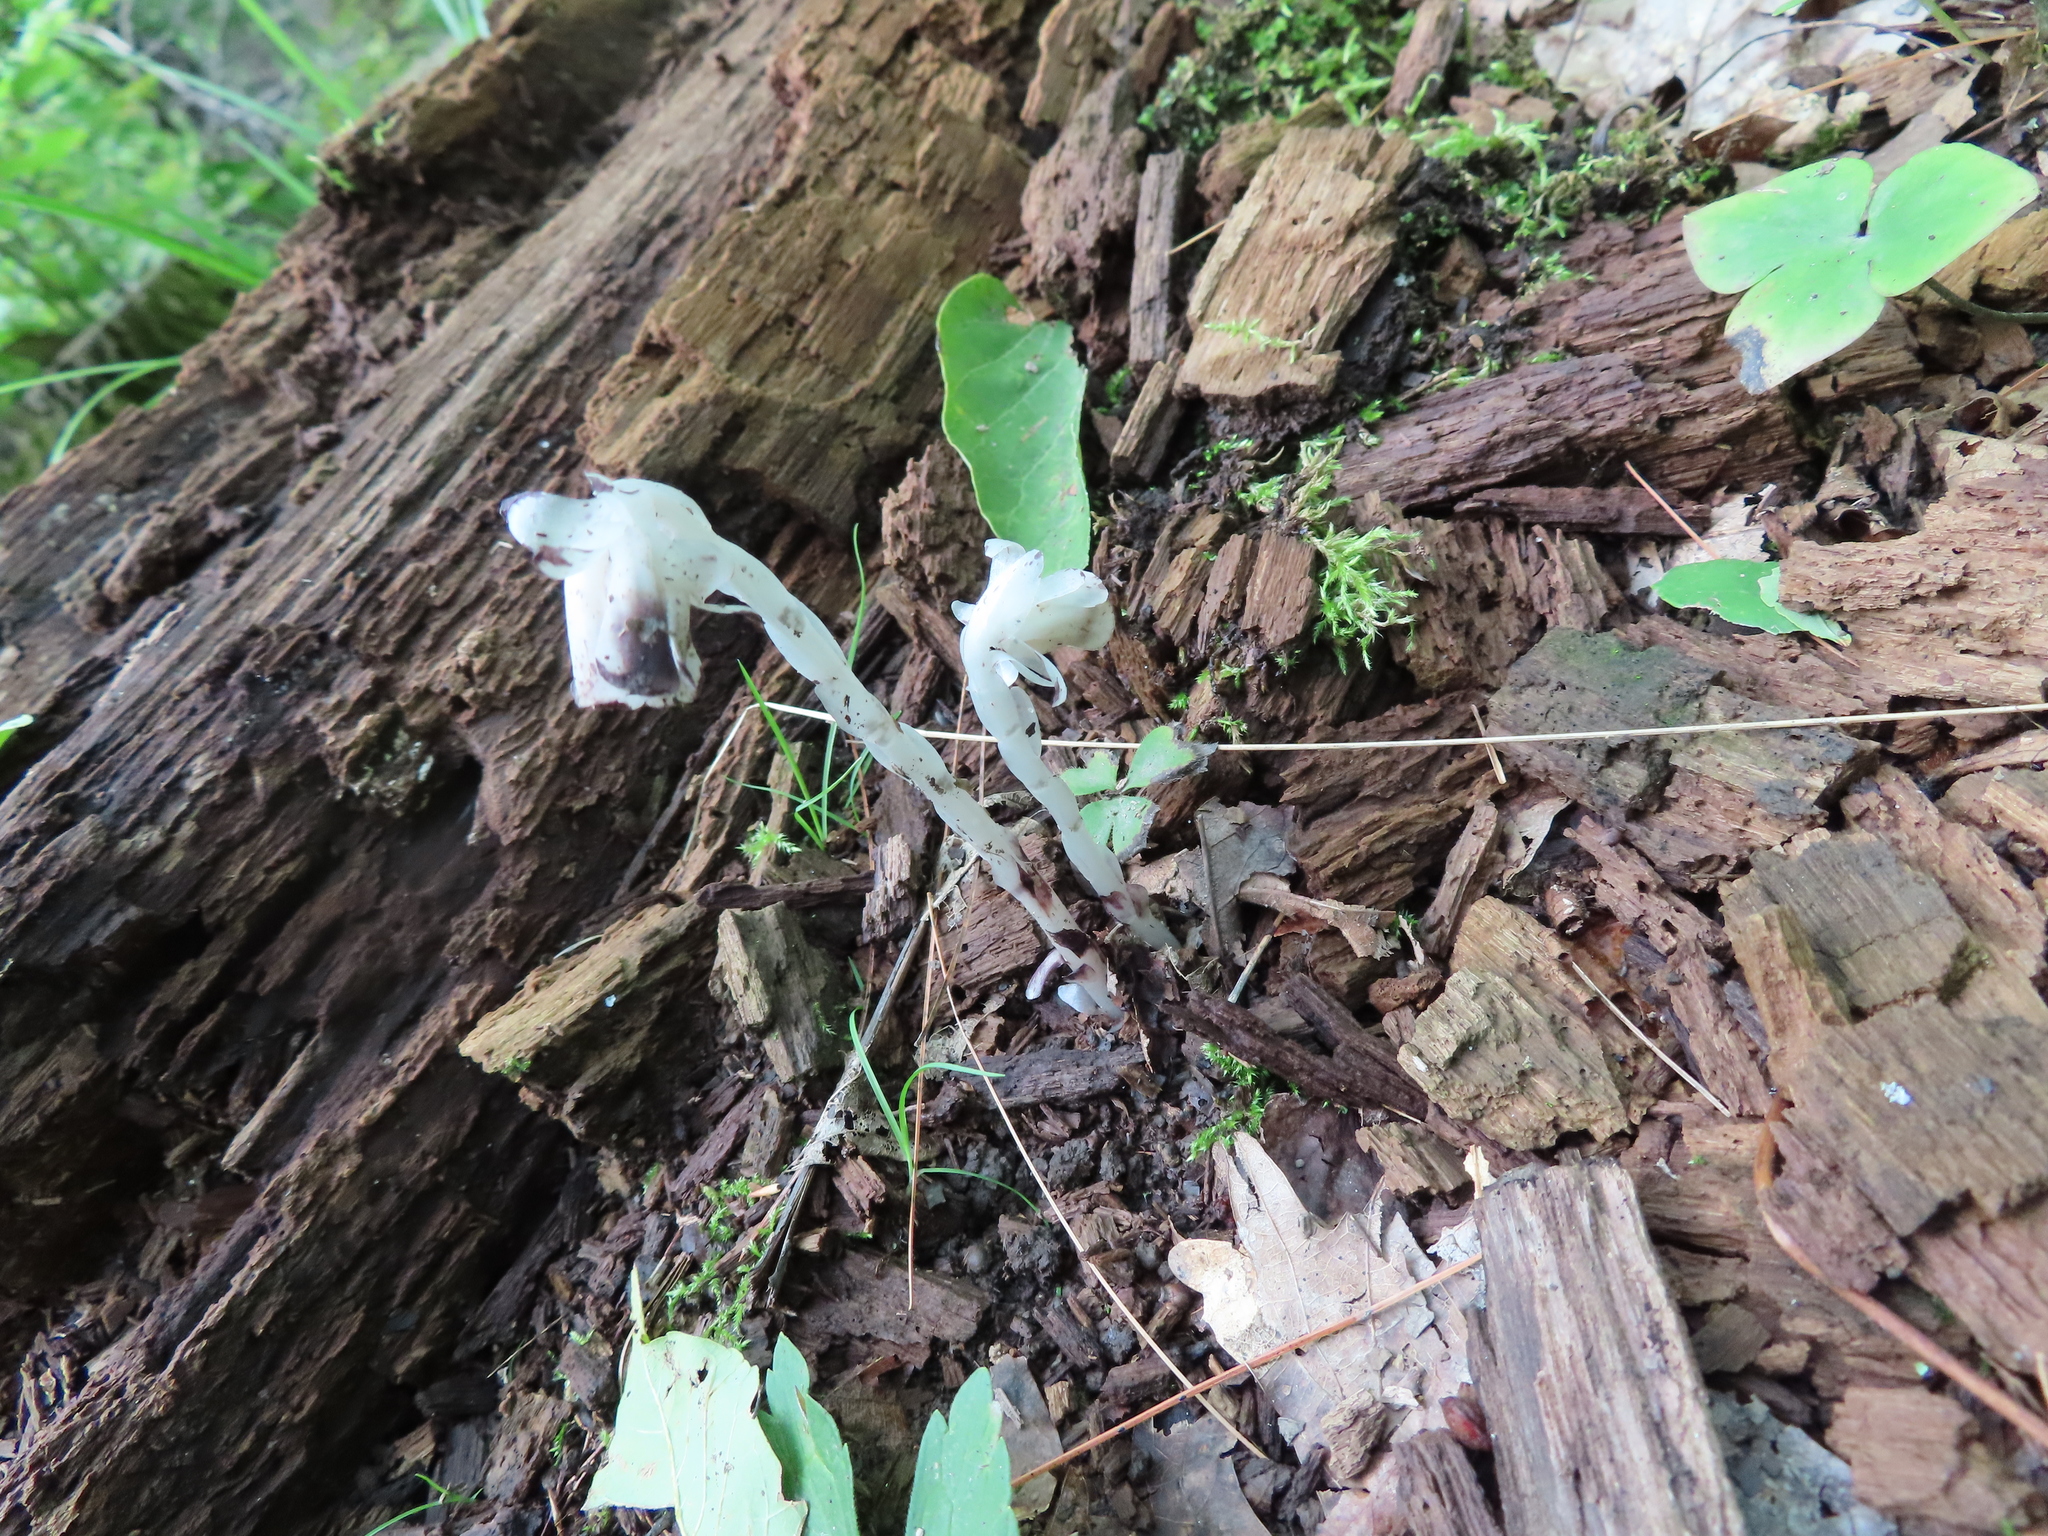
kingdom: Plantae
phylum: Tracheophyta
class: Magnoliopsida
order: Ericales
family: Ericaceae
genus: Monotropa
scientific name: Monotropa uniflora
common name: Convulsion root
